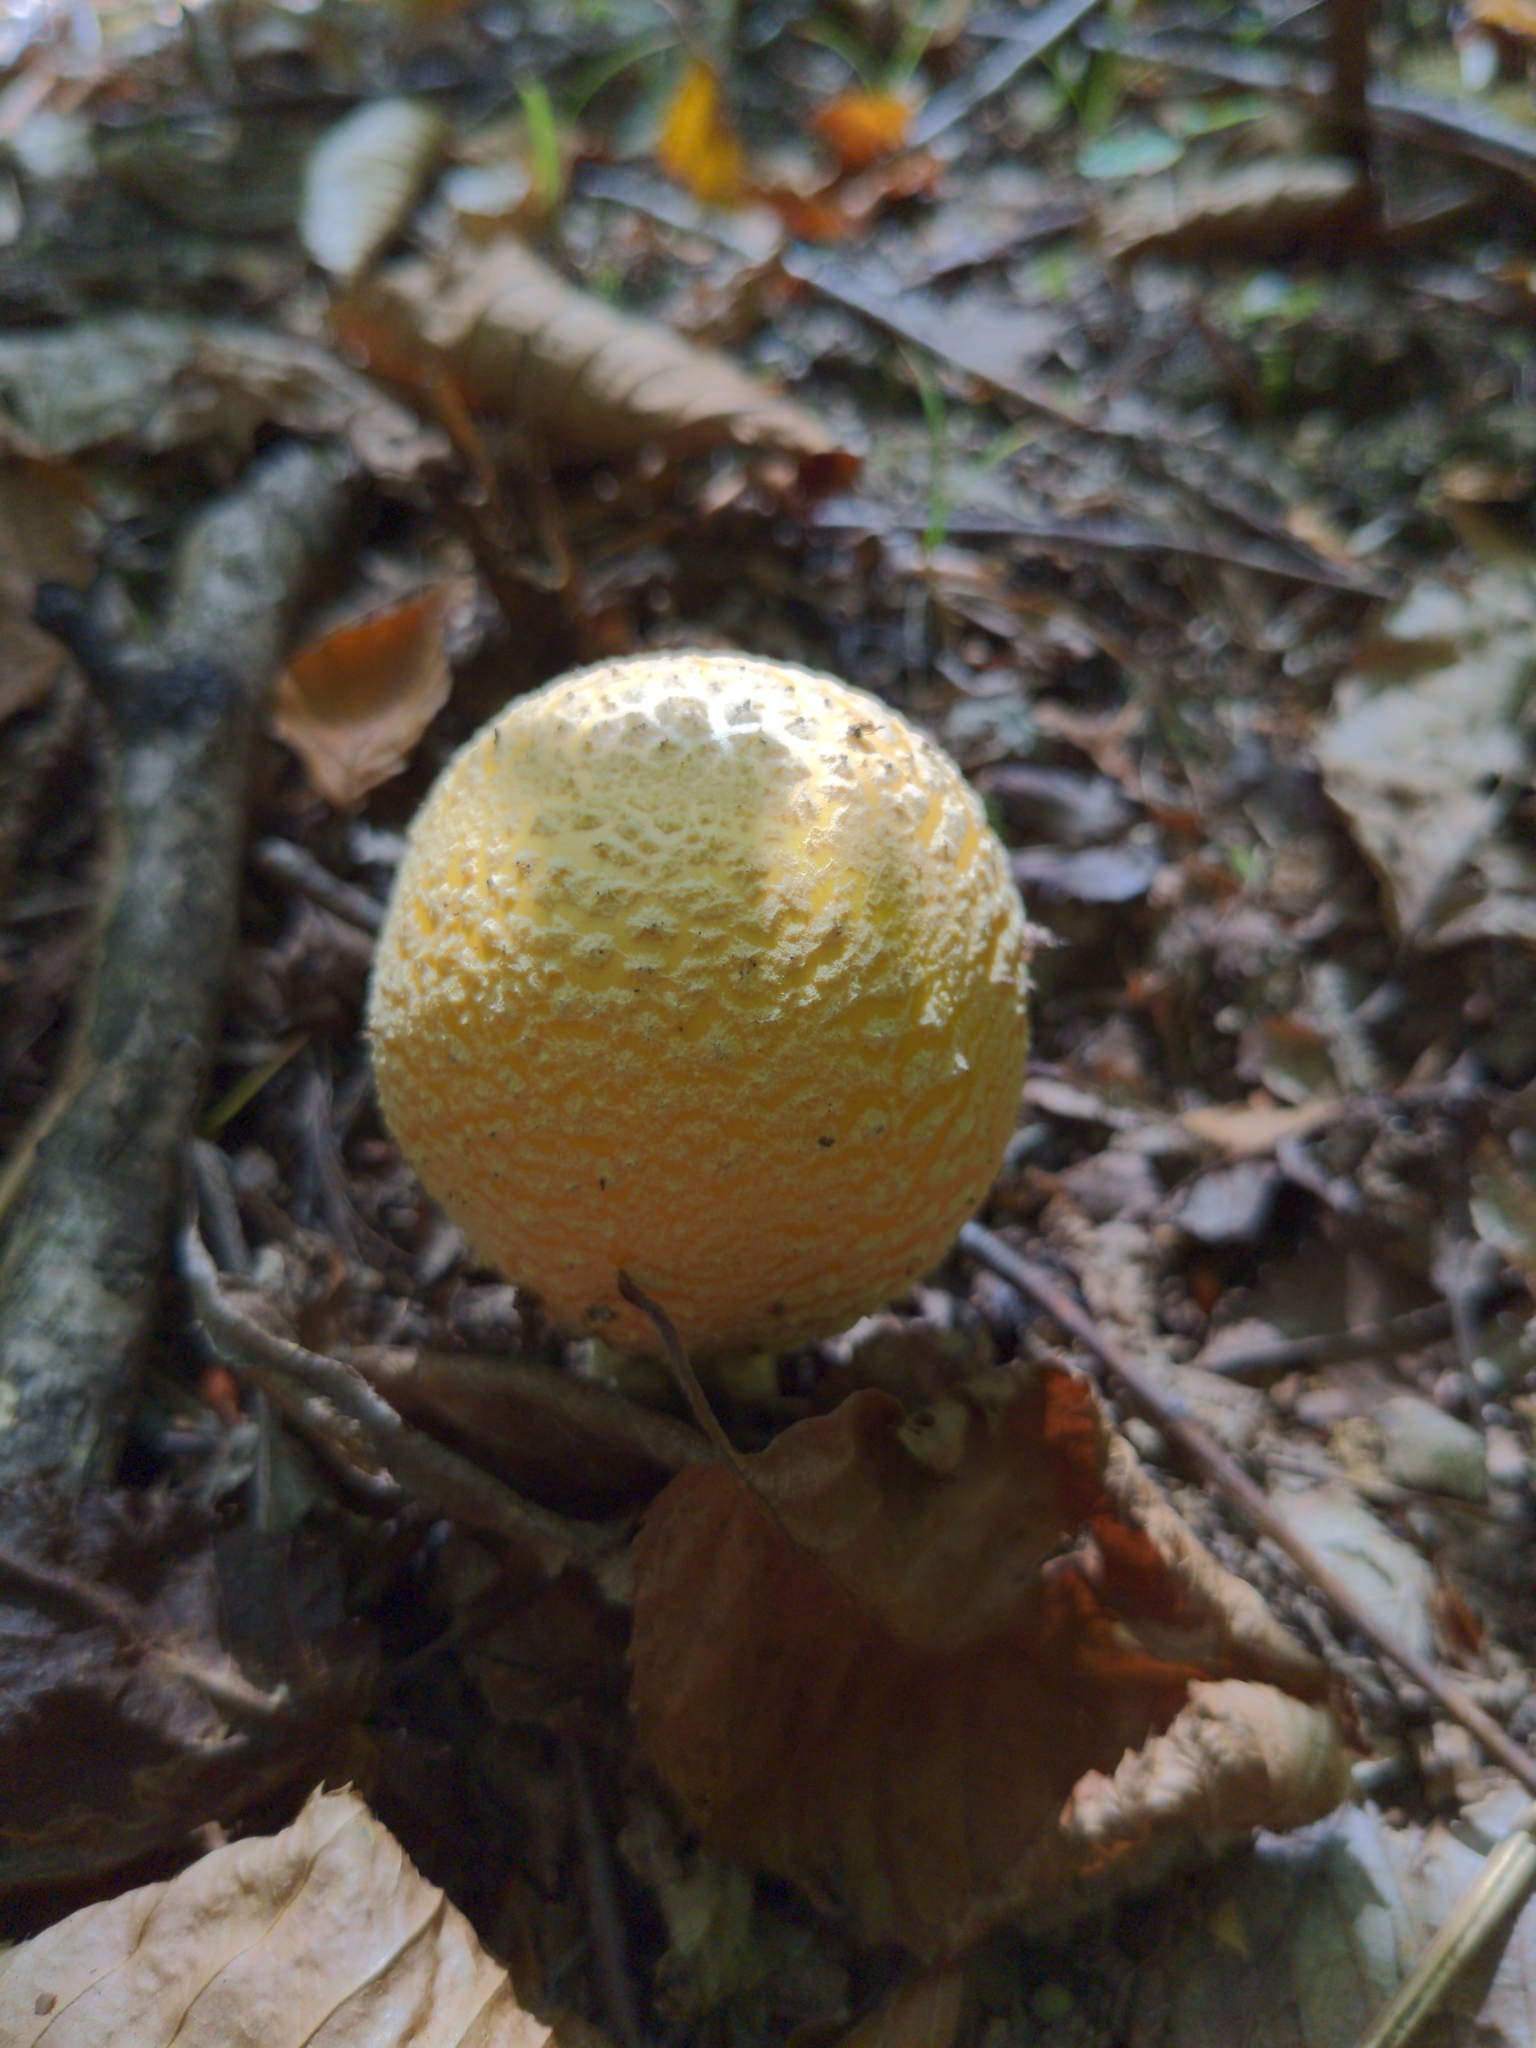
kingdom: Fungi
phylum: Basidiomycota
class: Agaricomycetes
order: Agaricales
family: Amanitaceae
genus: Amanita
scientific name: Amanita muscaria
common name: Fly agaric
